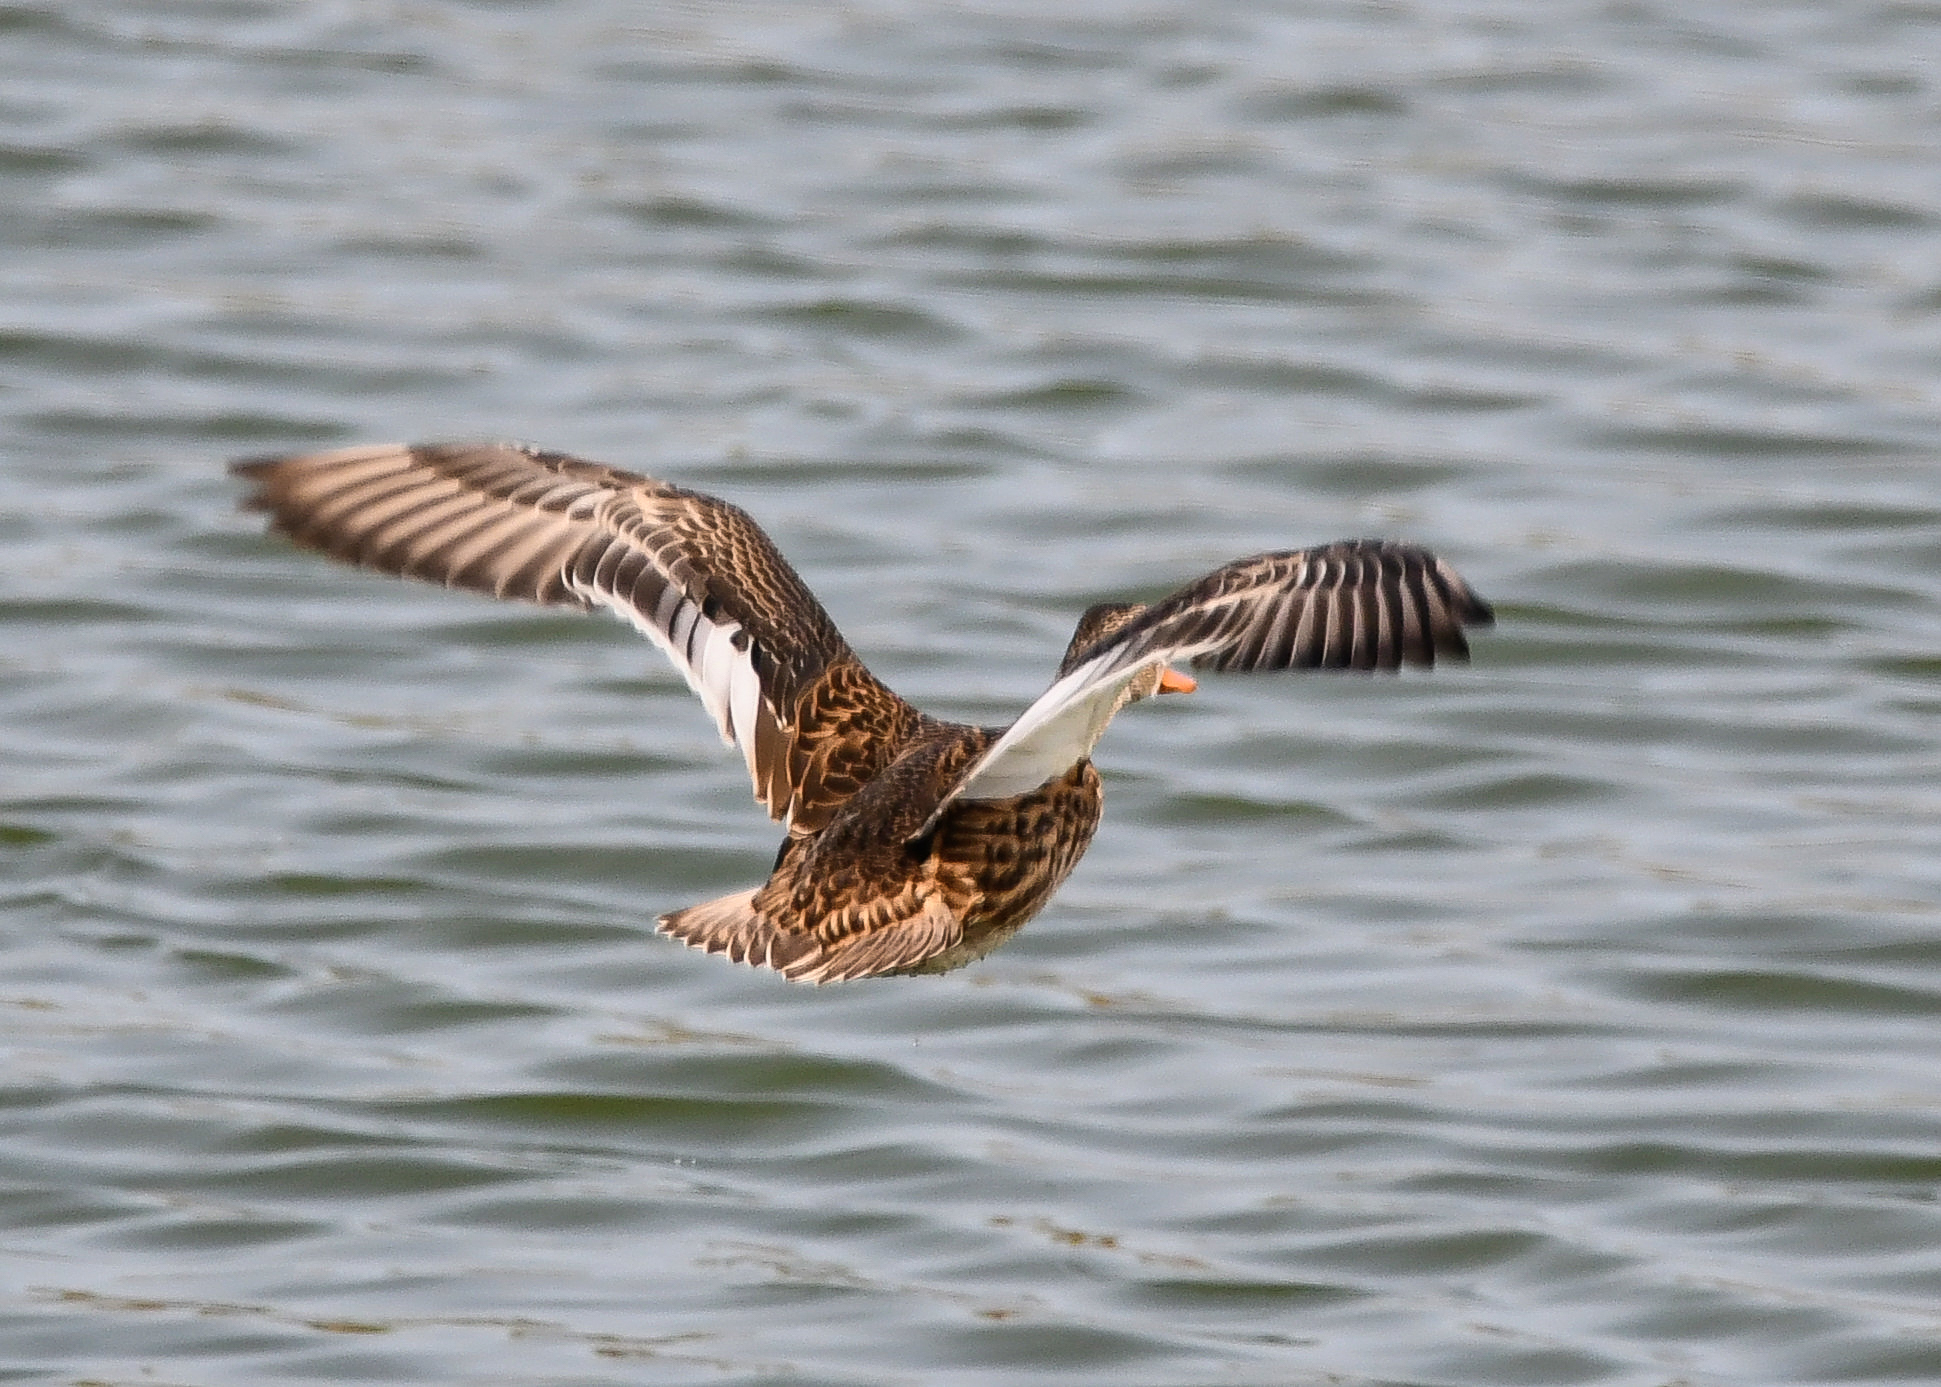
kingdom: Animalia
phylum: Chordata
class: Aves
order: Anseriformes
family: Anatidae
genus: Mareca
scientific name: Mareca strepera
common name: Gadwall
